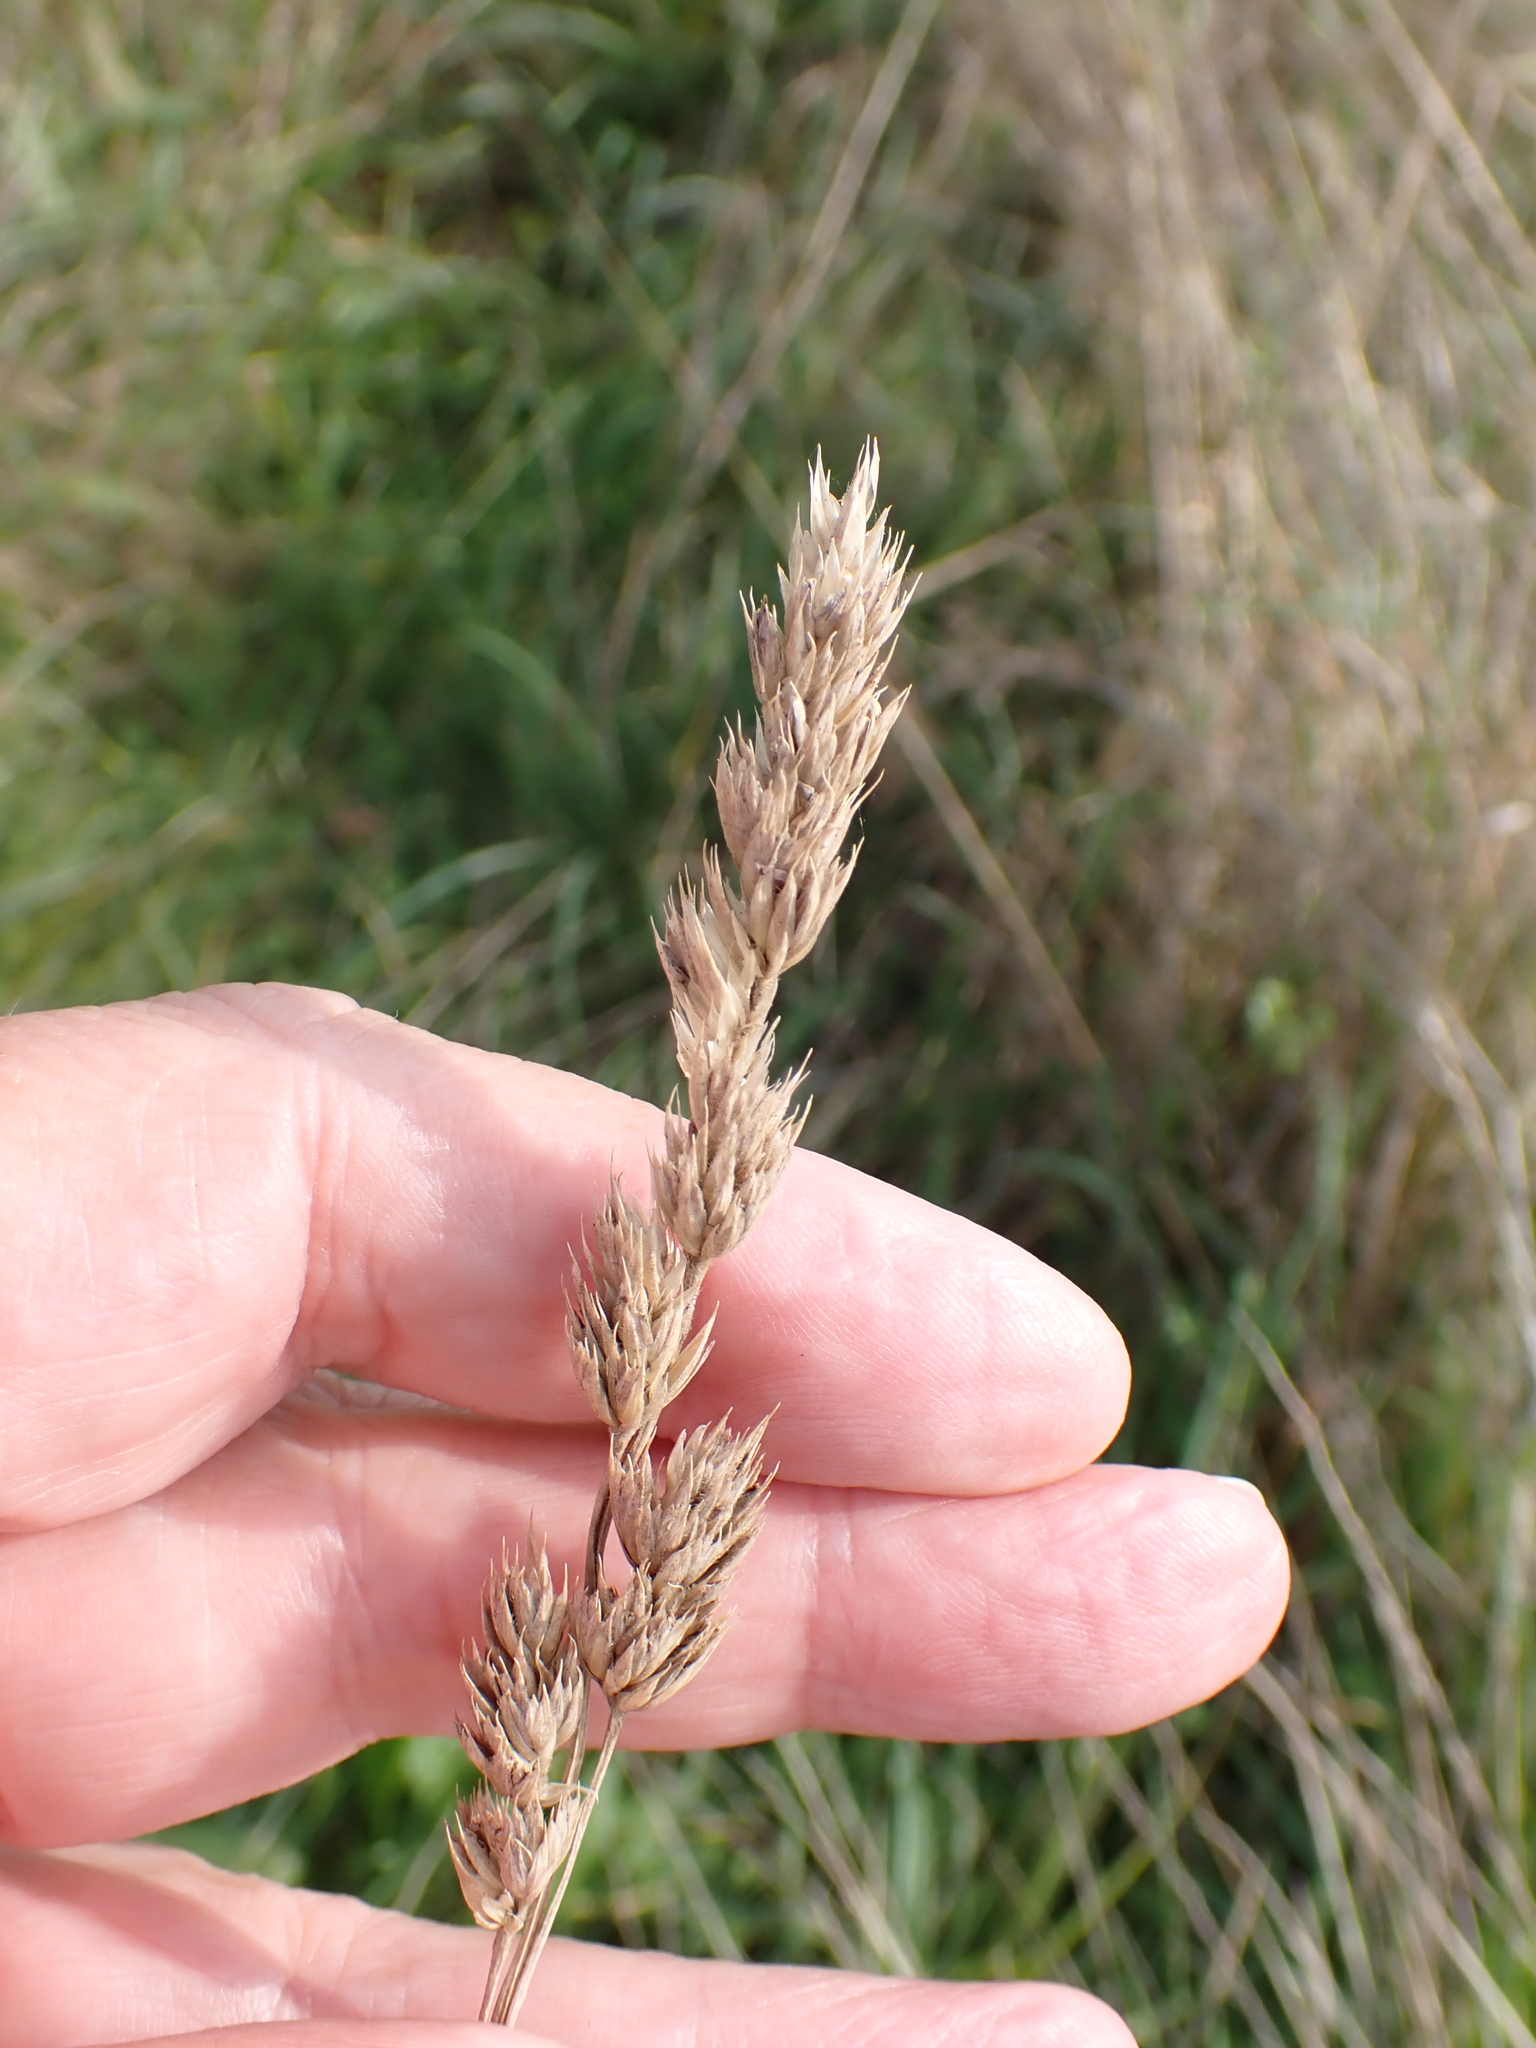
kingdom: Plantae
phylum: Tracheophyta
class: Liliopsida
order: Poales
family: Poaceae
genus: Dactylis
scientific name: Dactylis glomerata
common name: Orchardgrass
